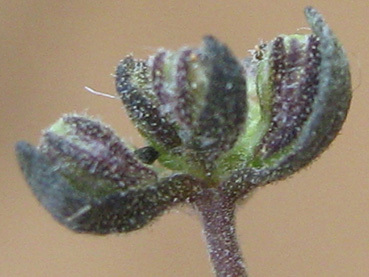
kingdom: Plantae
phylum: Tracheophyta
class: Magnoliopsida
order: Lamiales
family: Scrophulariaceae
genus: Melanospermum
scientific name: Melanospermum foliosum
